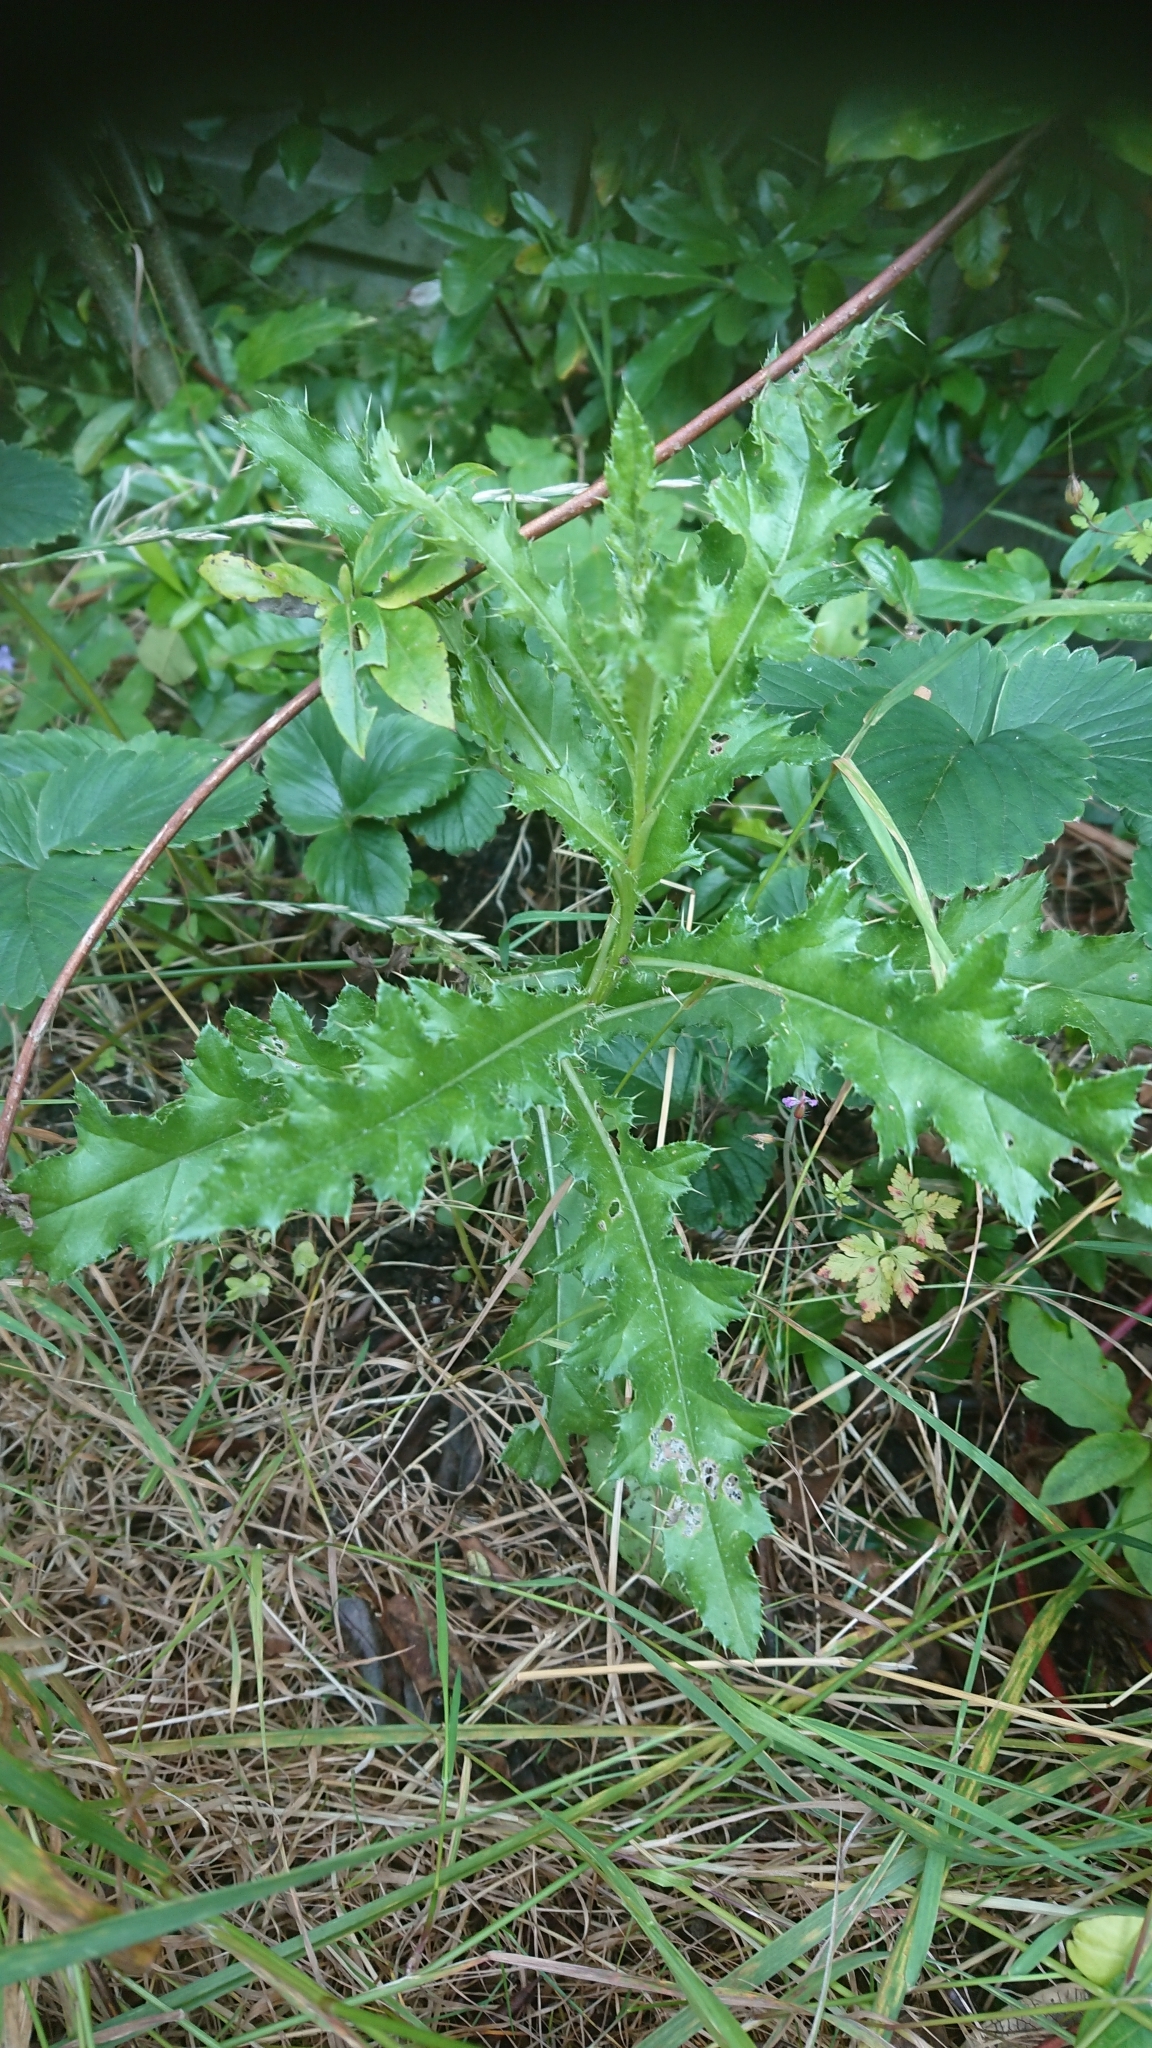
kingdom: Plantae
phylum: Tracheophyta
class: Magnoliopsida
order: Asterales
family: Asteraceae
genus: Cirsium
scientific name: Cirsium arvense
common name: Creeping thistle
